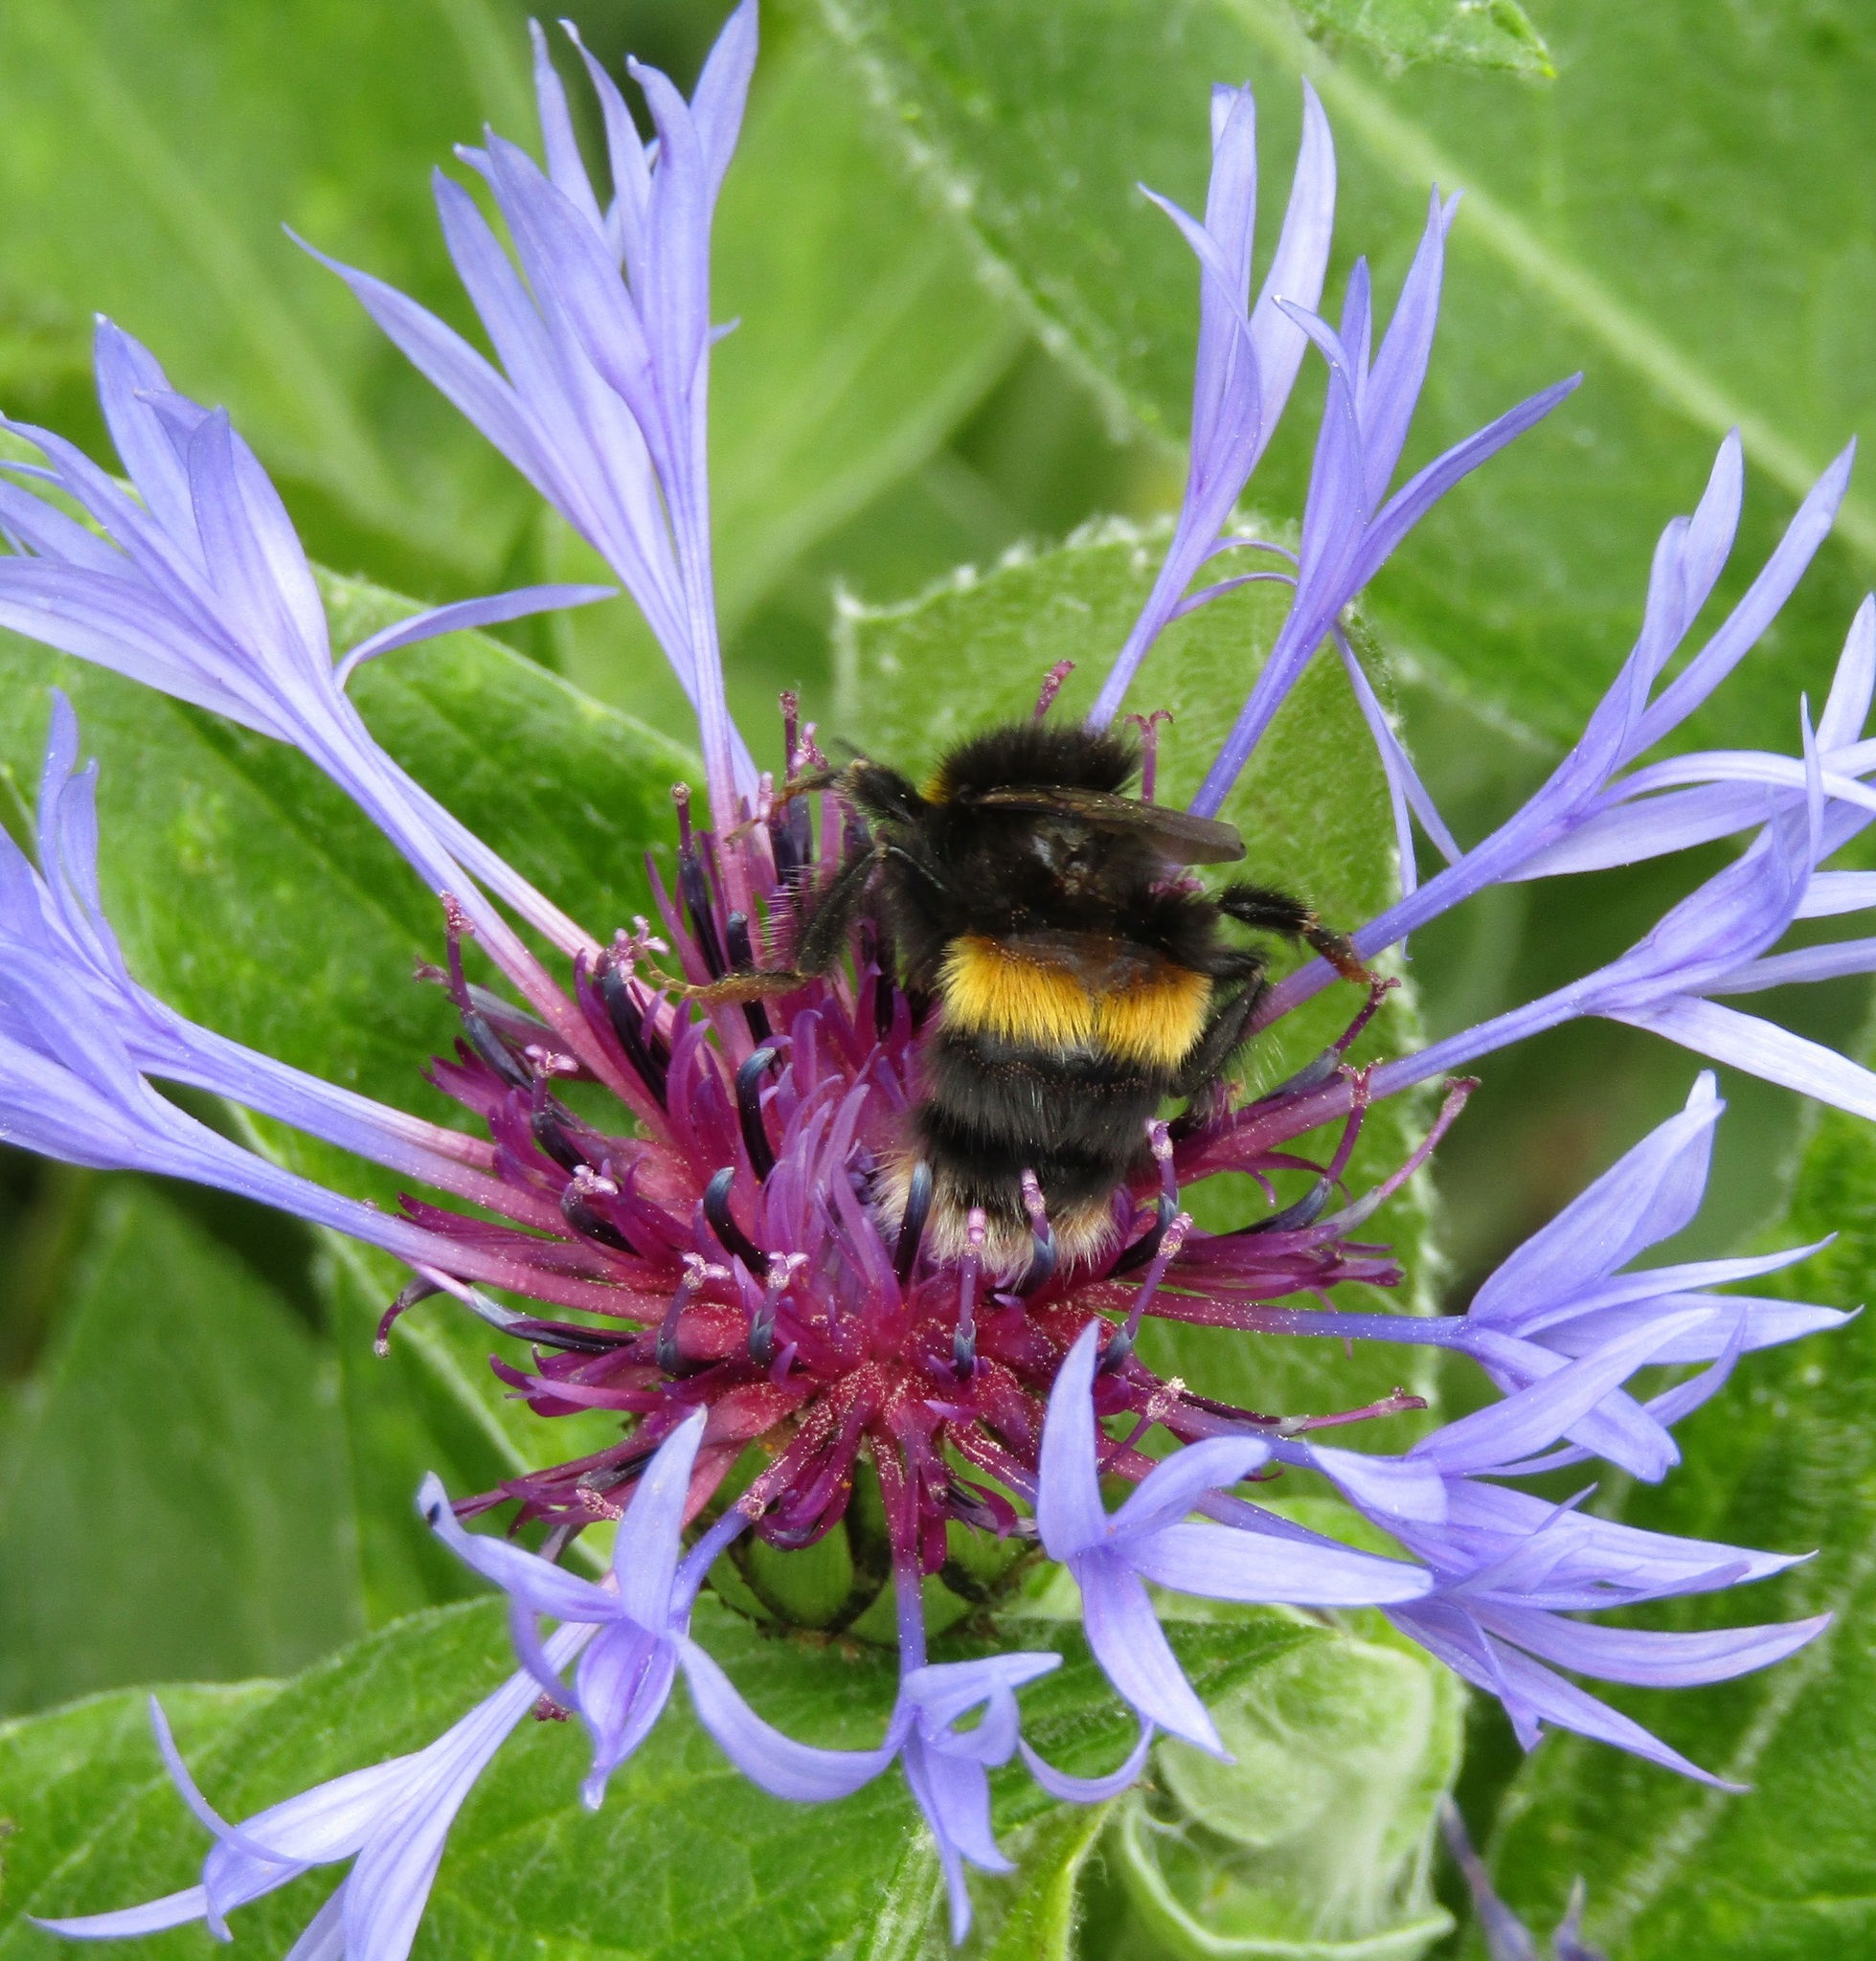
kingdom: Animalia
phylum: Arthropoda
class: Insecta
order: Hymenoptera
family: Apidae
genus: Bombus
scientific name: Bombus terrestris
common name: Buff-tailed bumblebee
